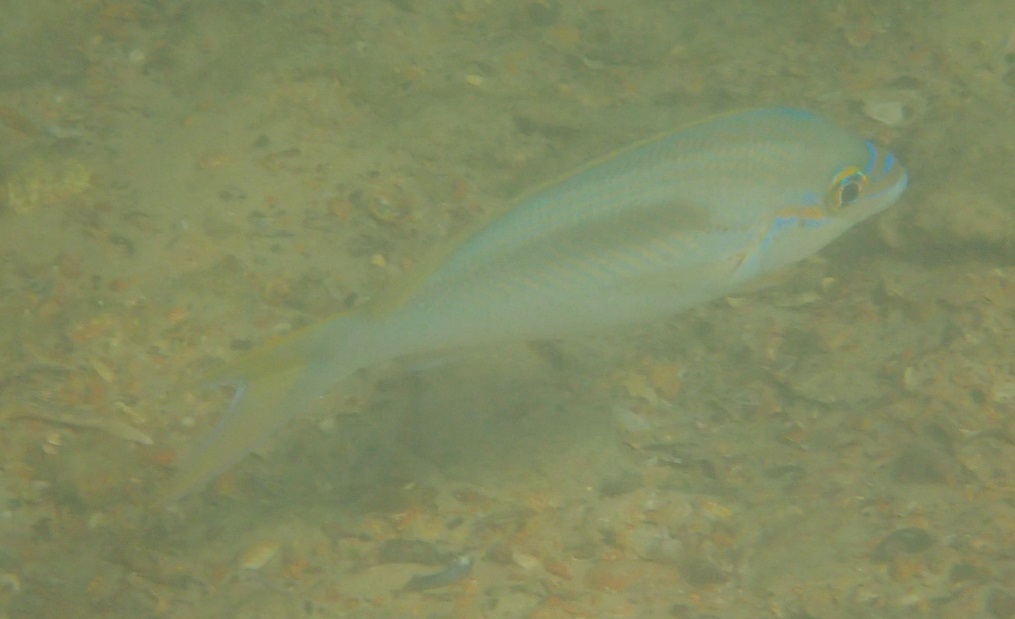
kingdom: Animalia
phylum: Chordata
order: Perciformes
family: Nemipteridae
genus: Scolopsis
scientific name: Scolopsis monogramma
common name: Monogrammed monocle bream
